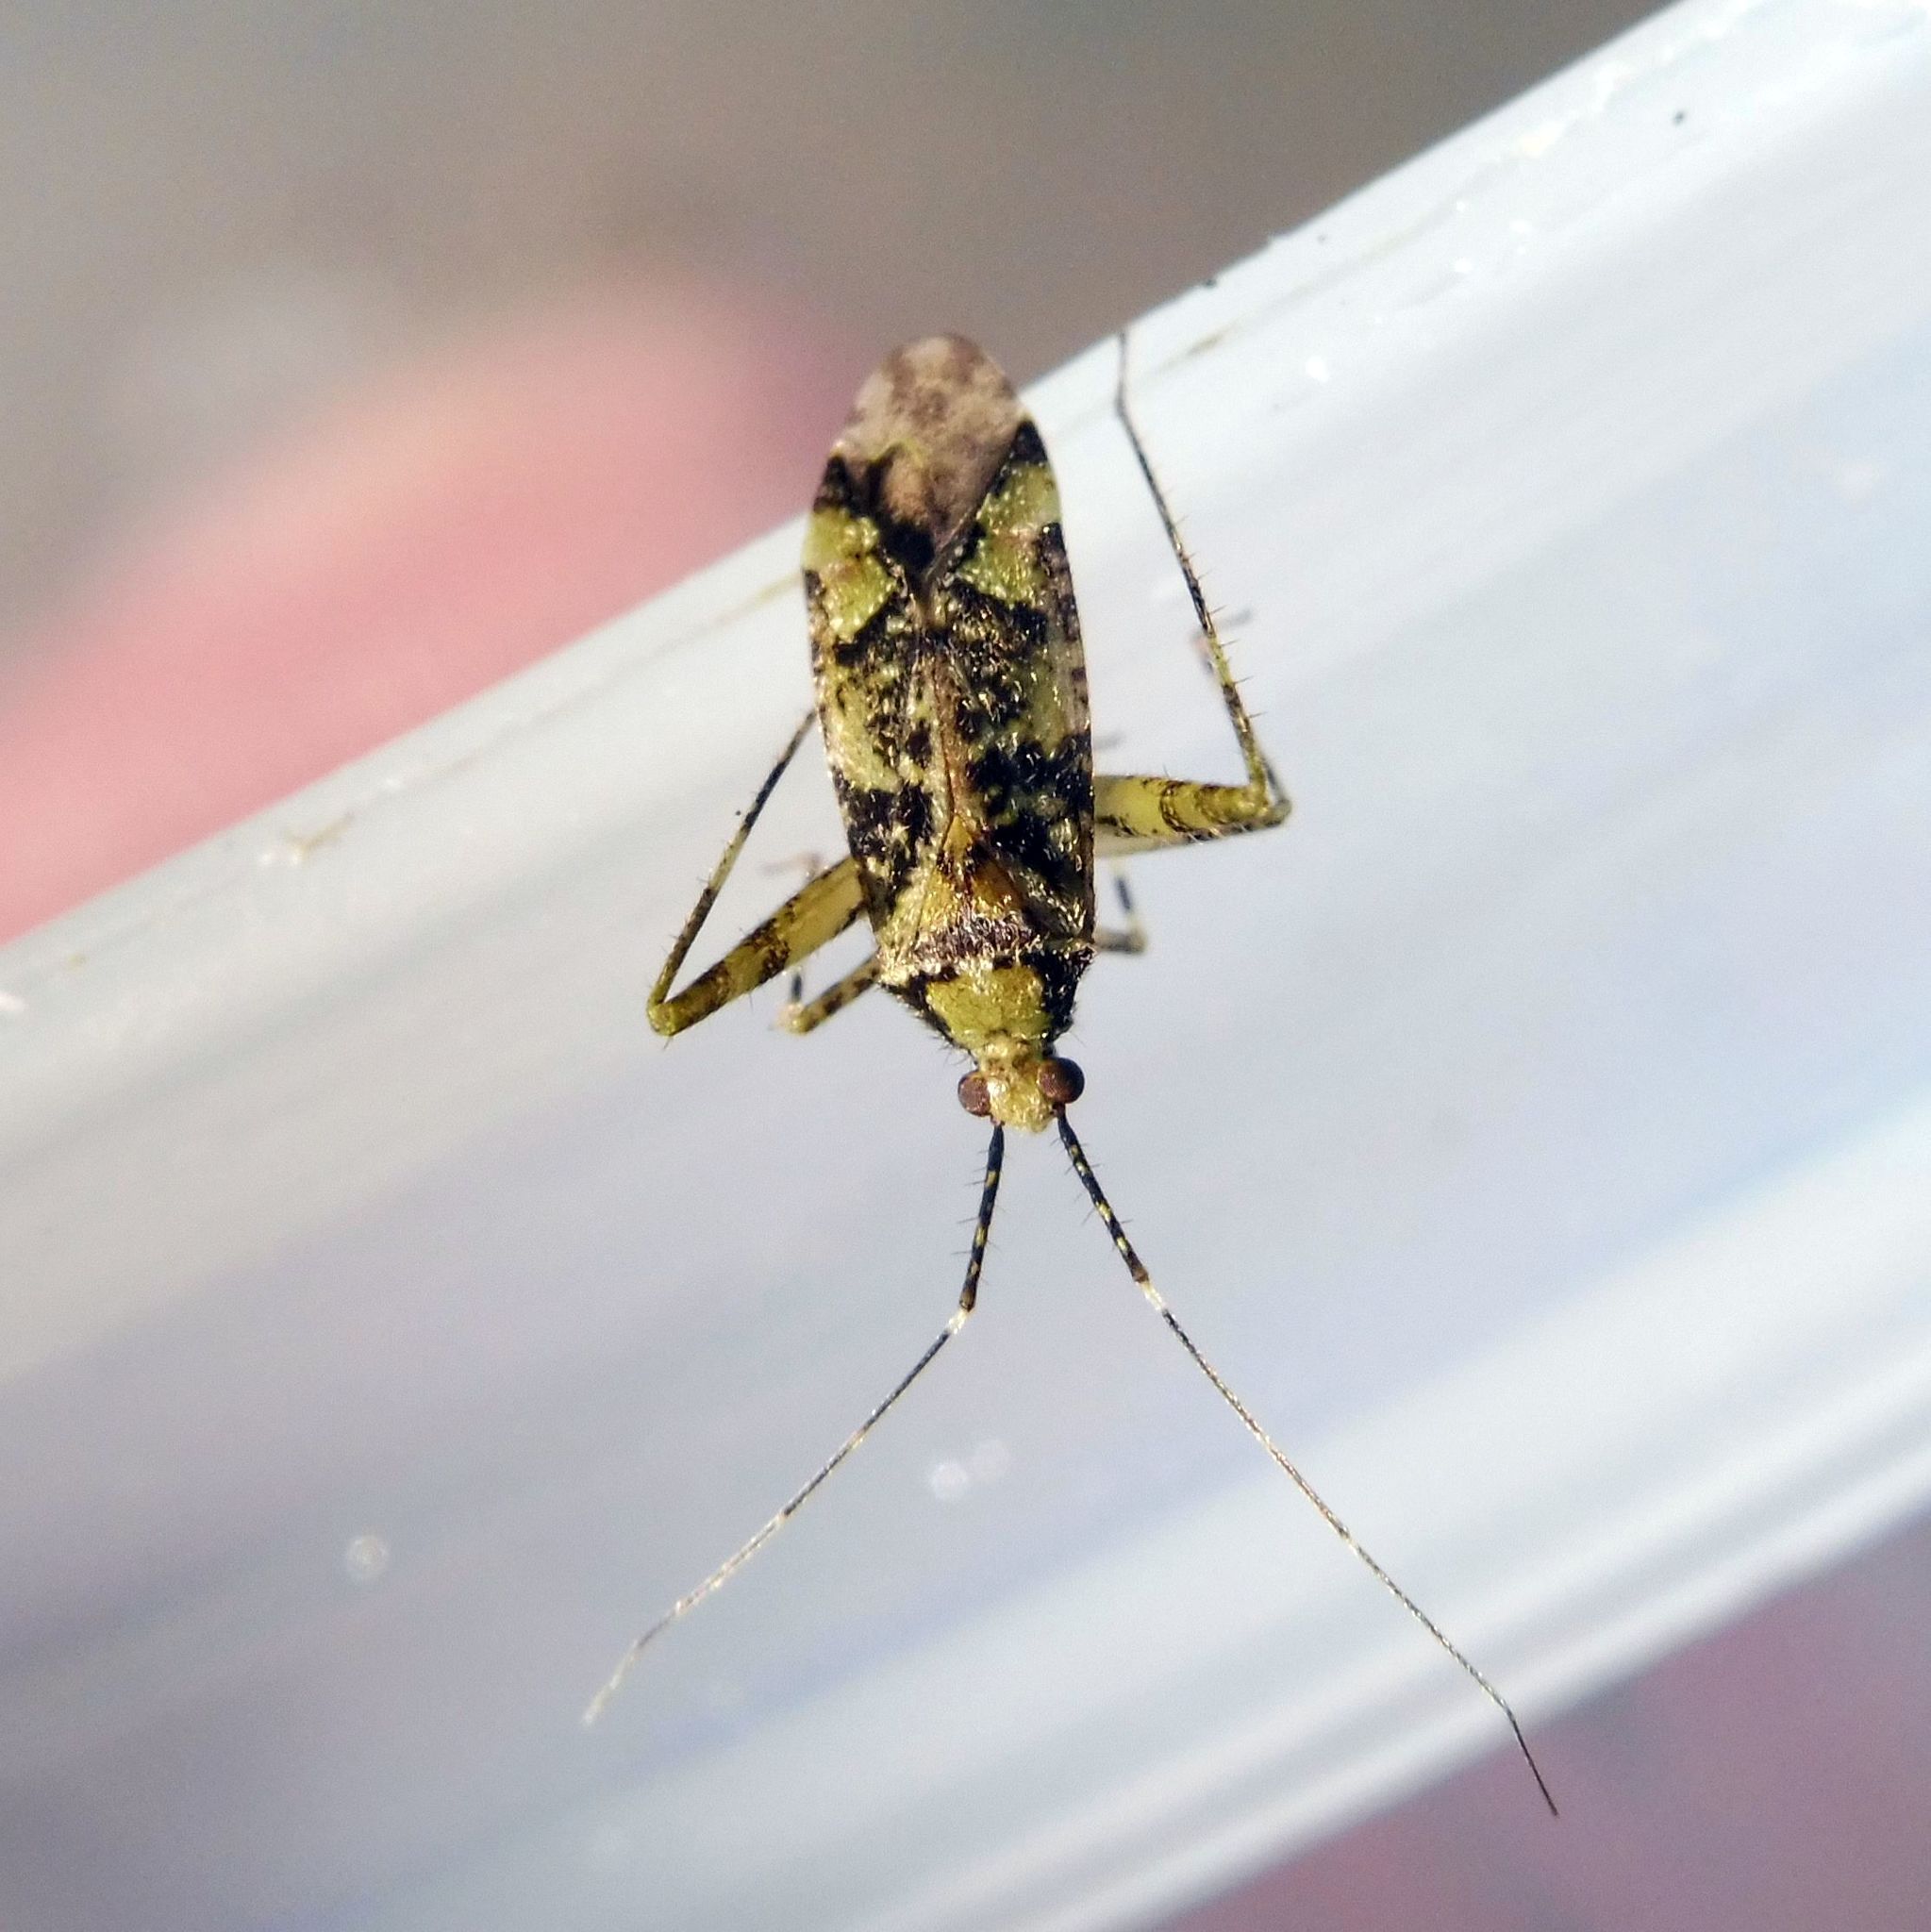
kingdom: Animalia
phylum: Arthropoda
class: Insecta
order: Hemiptera
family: Miridae
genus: Phytocoris
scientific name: Phytocoris tiliae
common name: Plant bug
